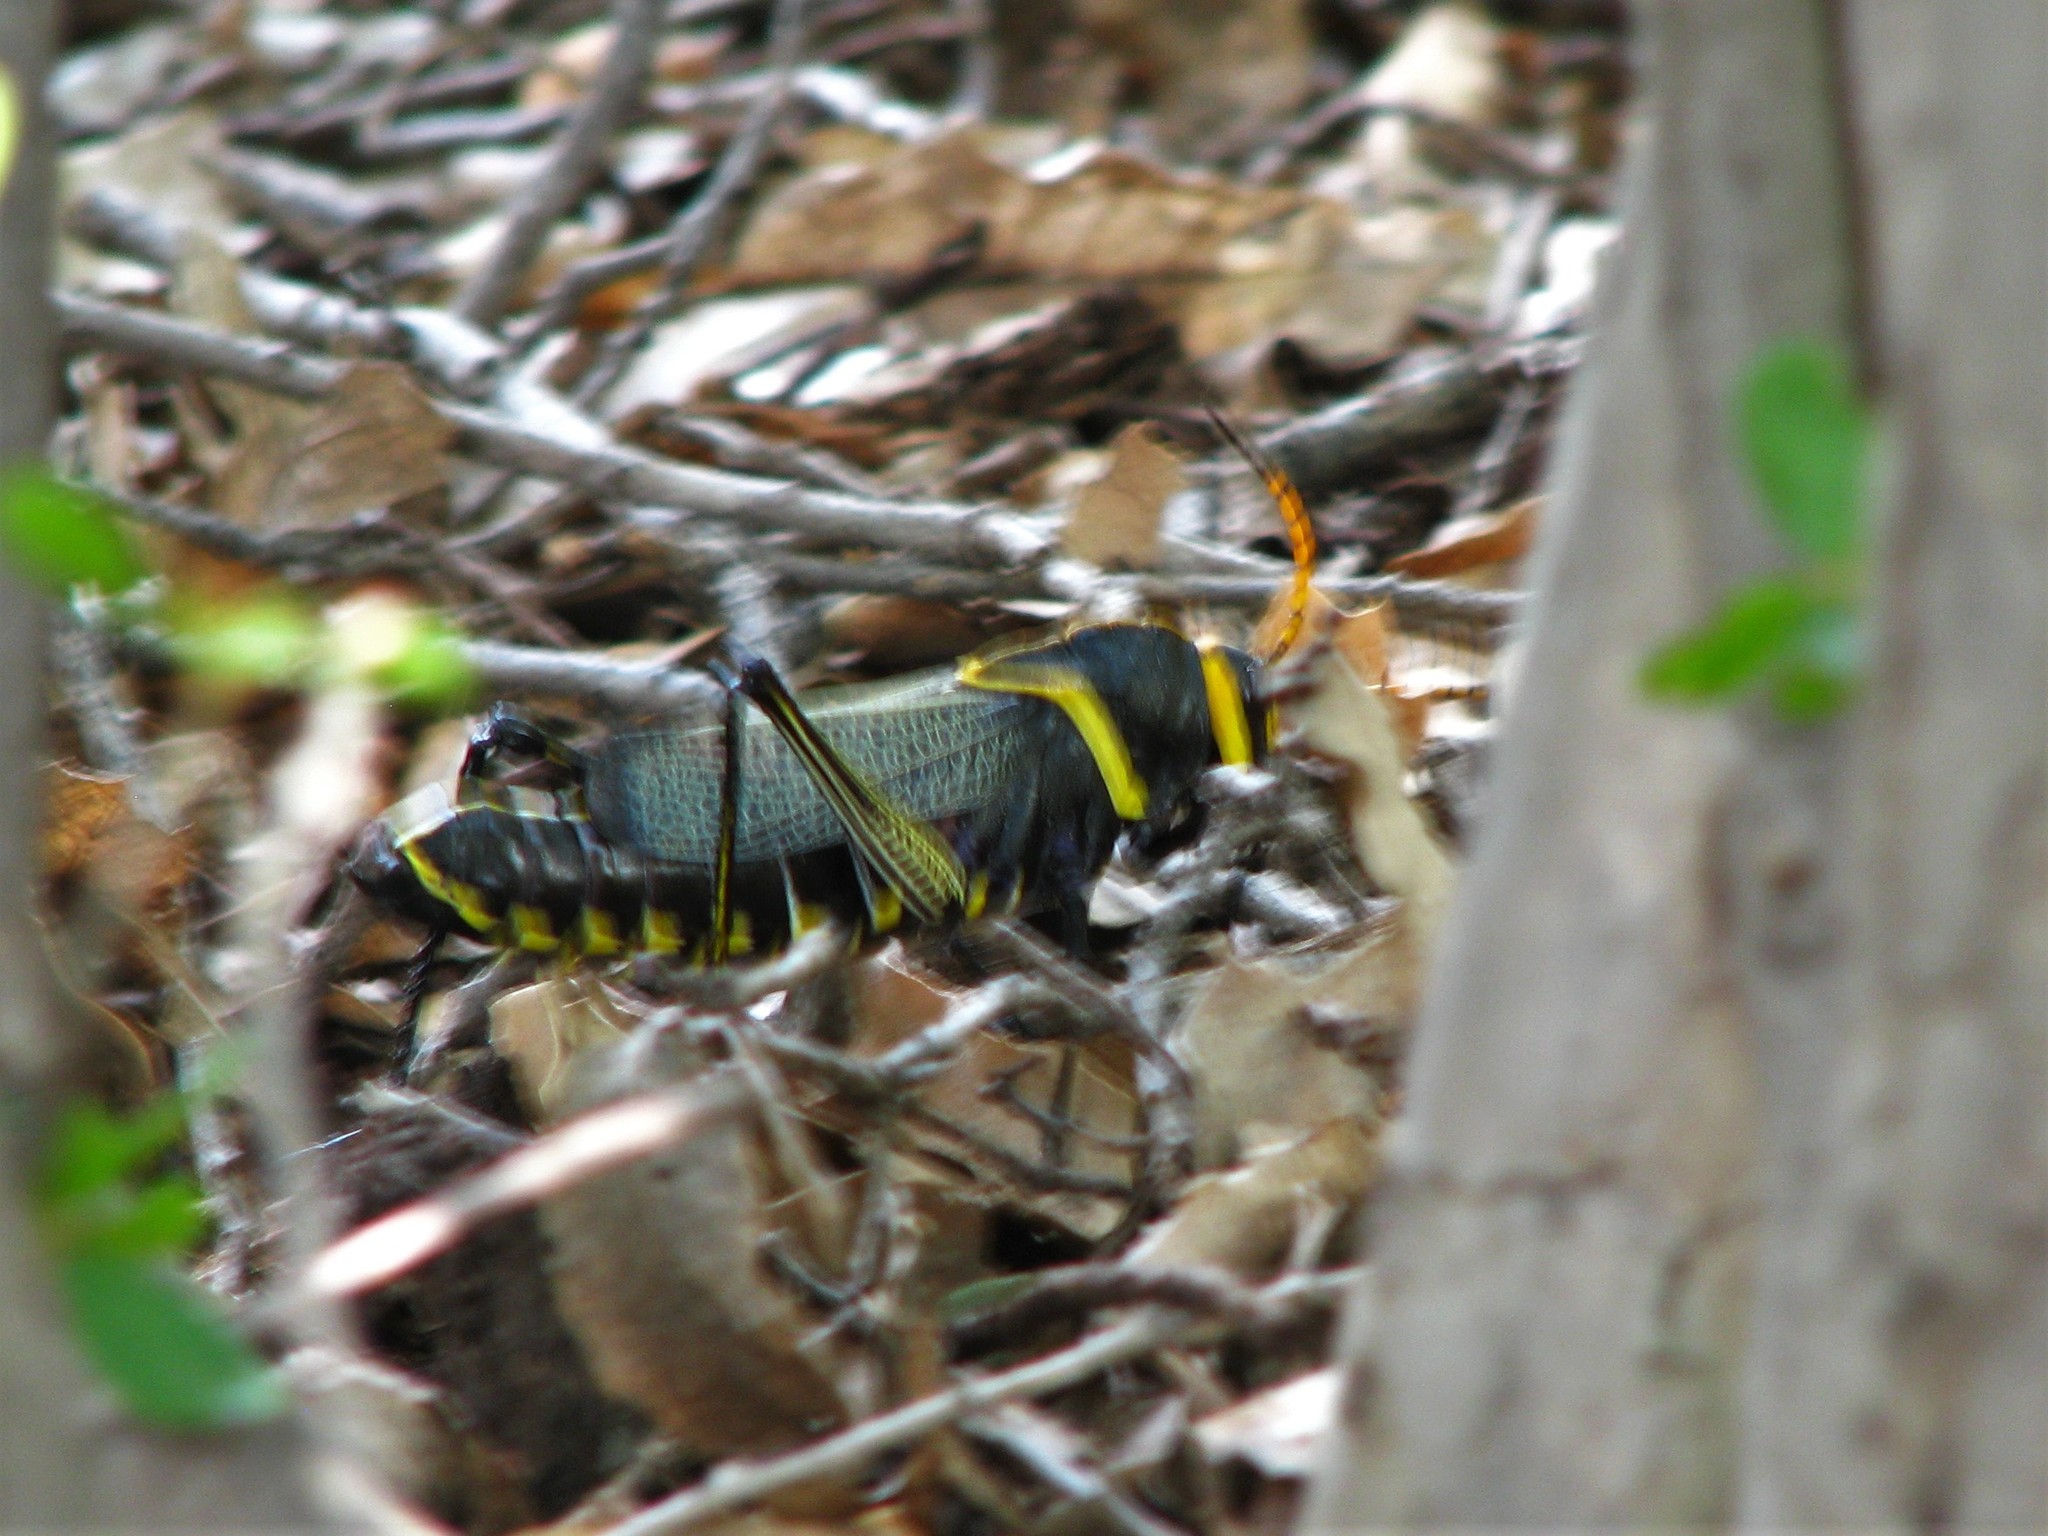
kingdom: Animalia
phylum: Arthropoda
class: Insecta
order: Orthoptera
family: Romaleidae
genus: Romalea
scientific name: Romalea
